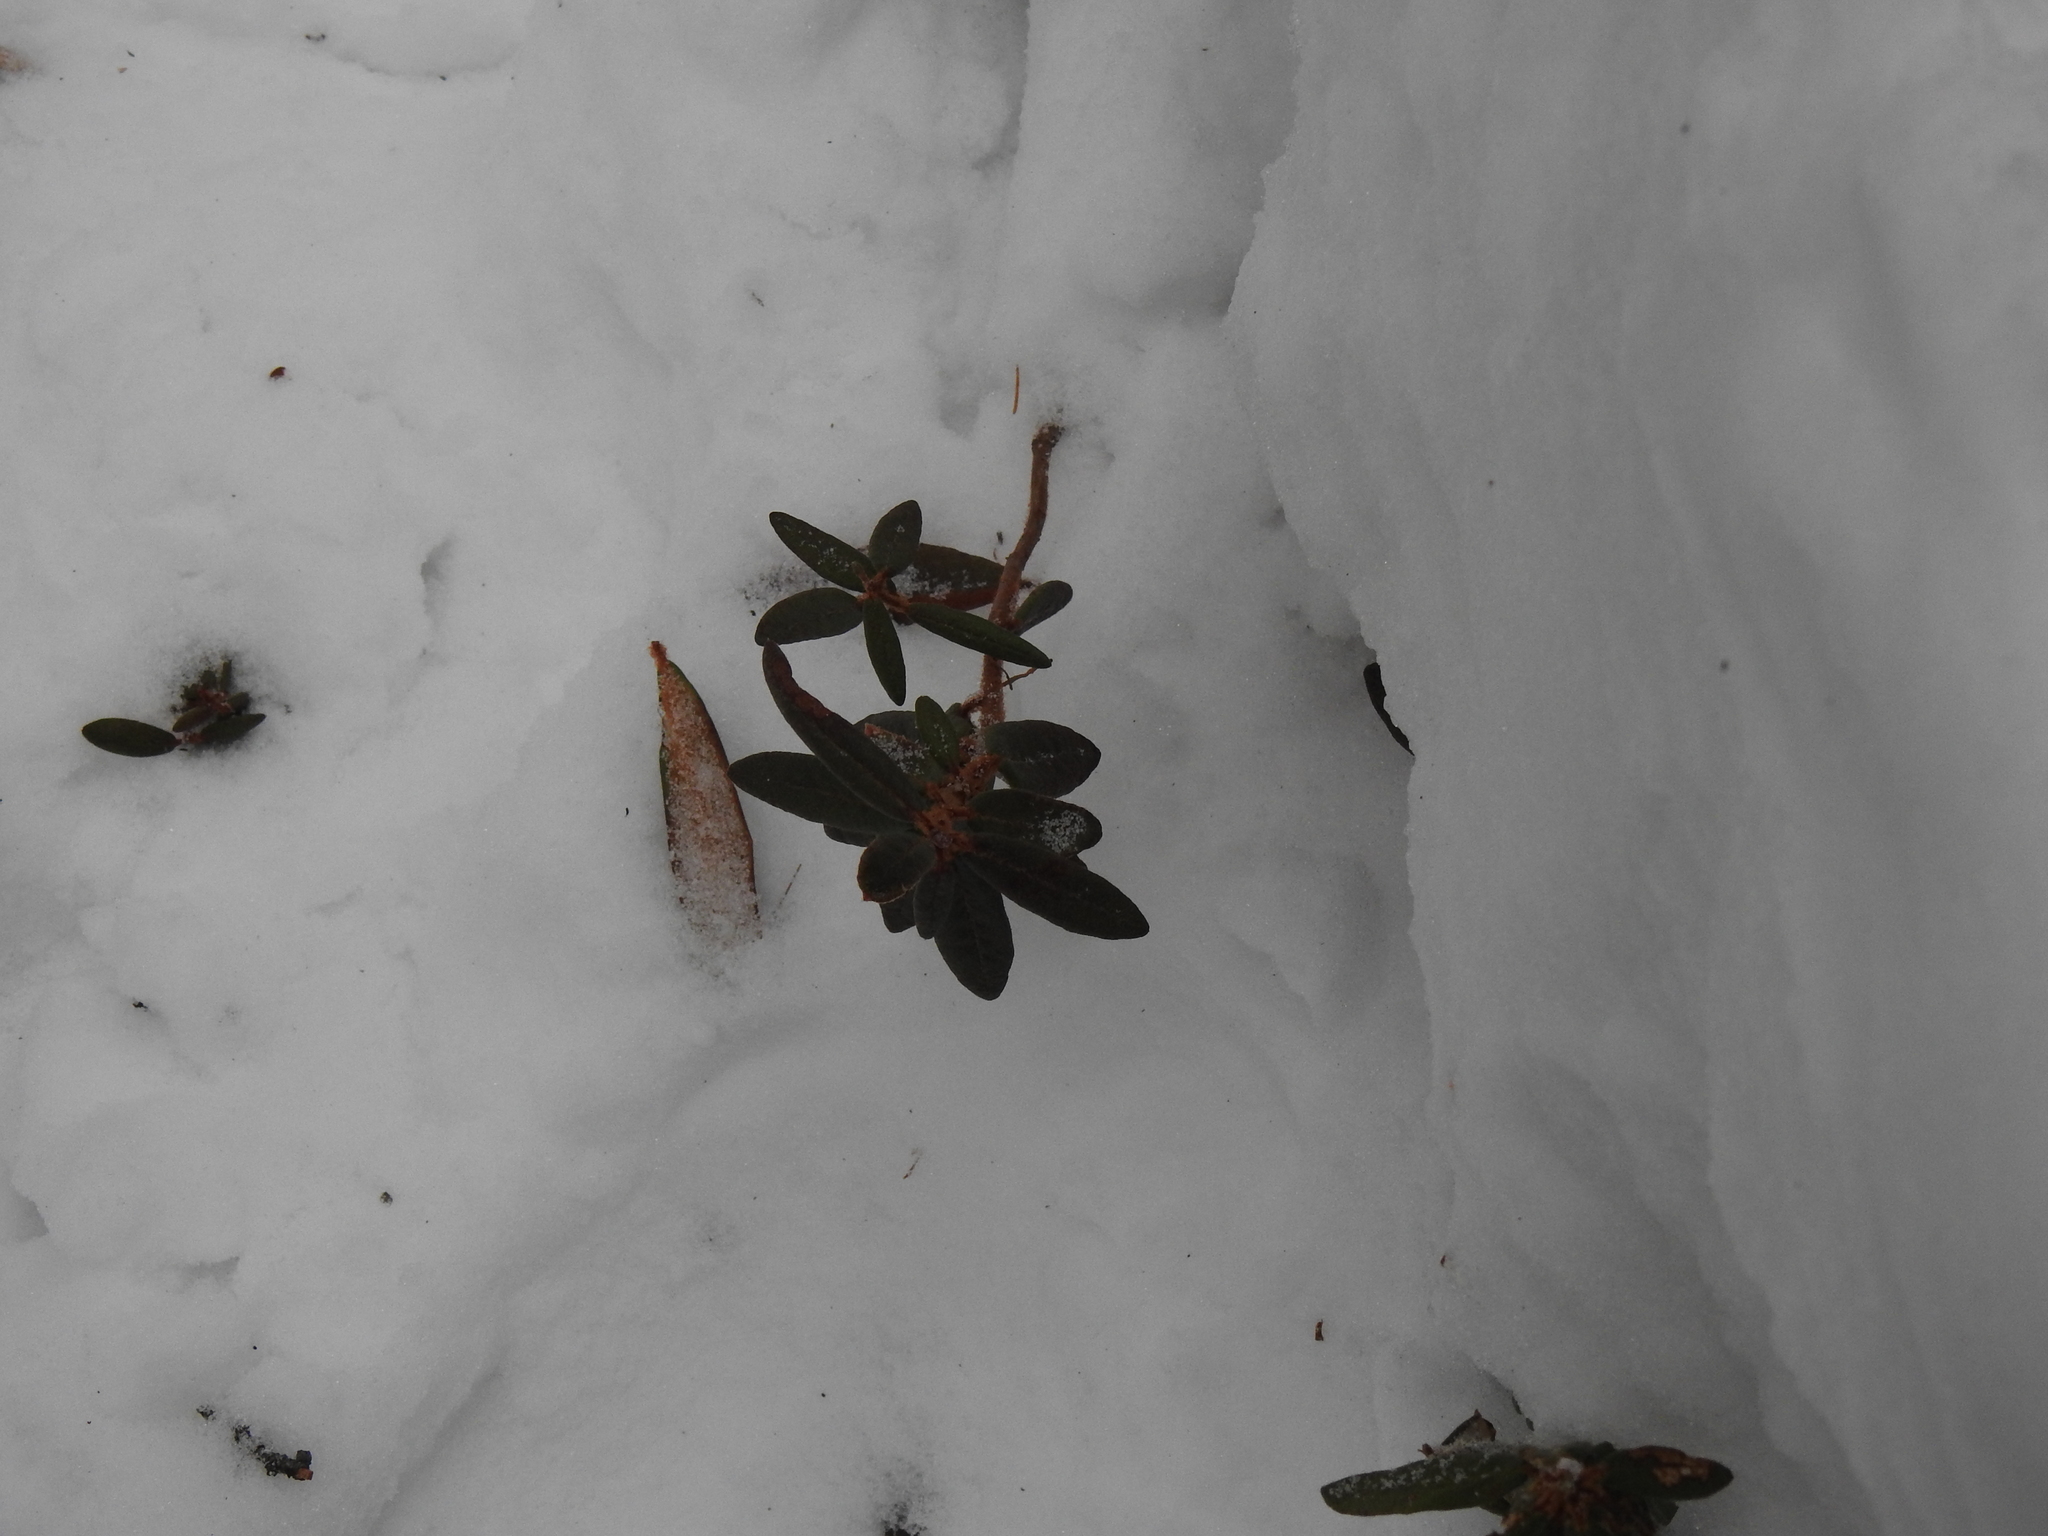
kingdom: Plantae
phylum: Tracheophyta
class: Magnoliopsida
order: Ericales
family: Ericaceae
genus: Rhododendron
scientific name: Rhododendron groenlandicum
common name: Bog labrador tea
